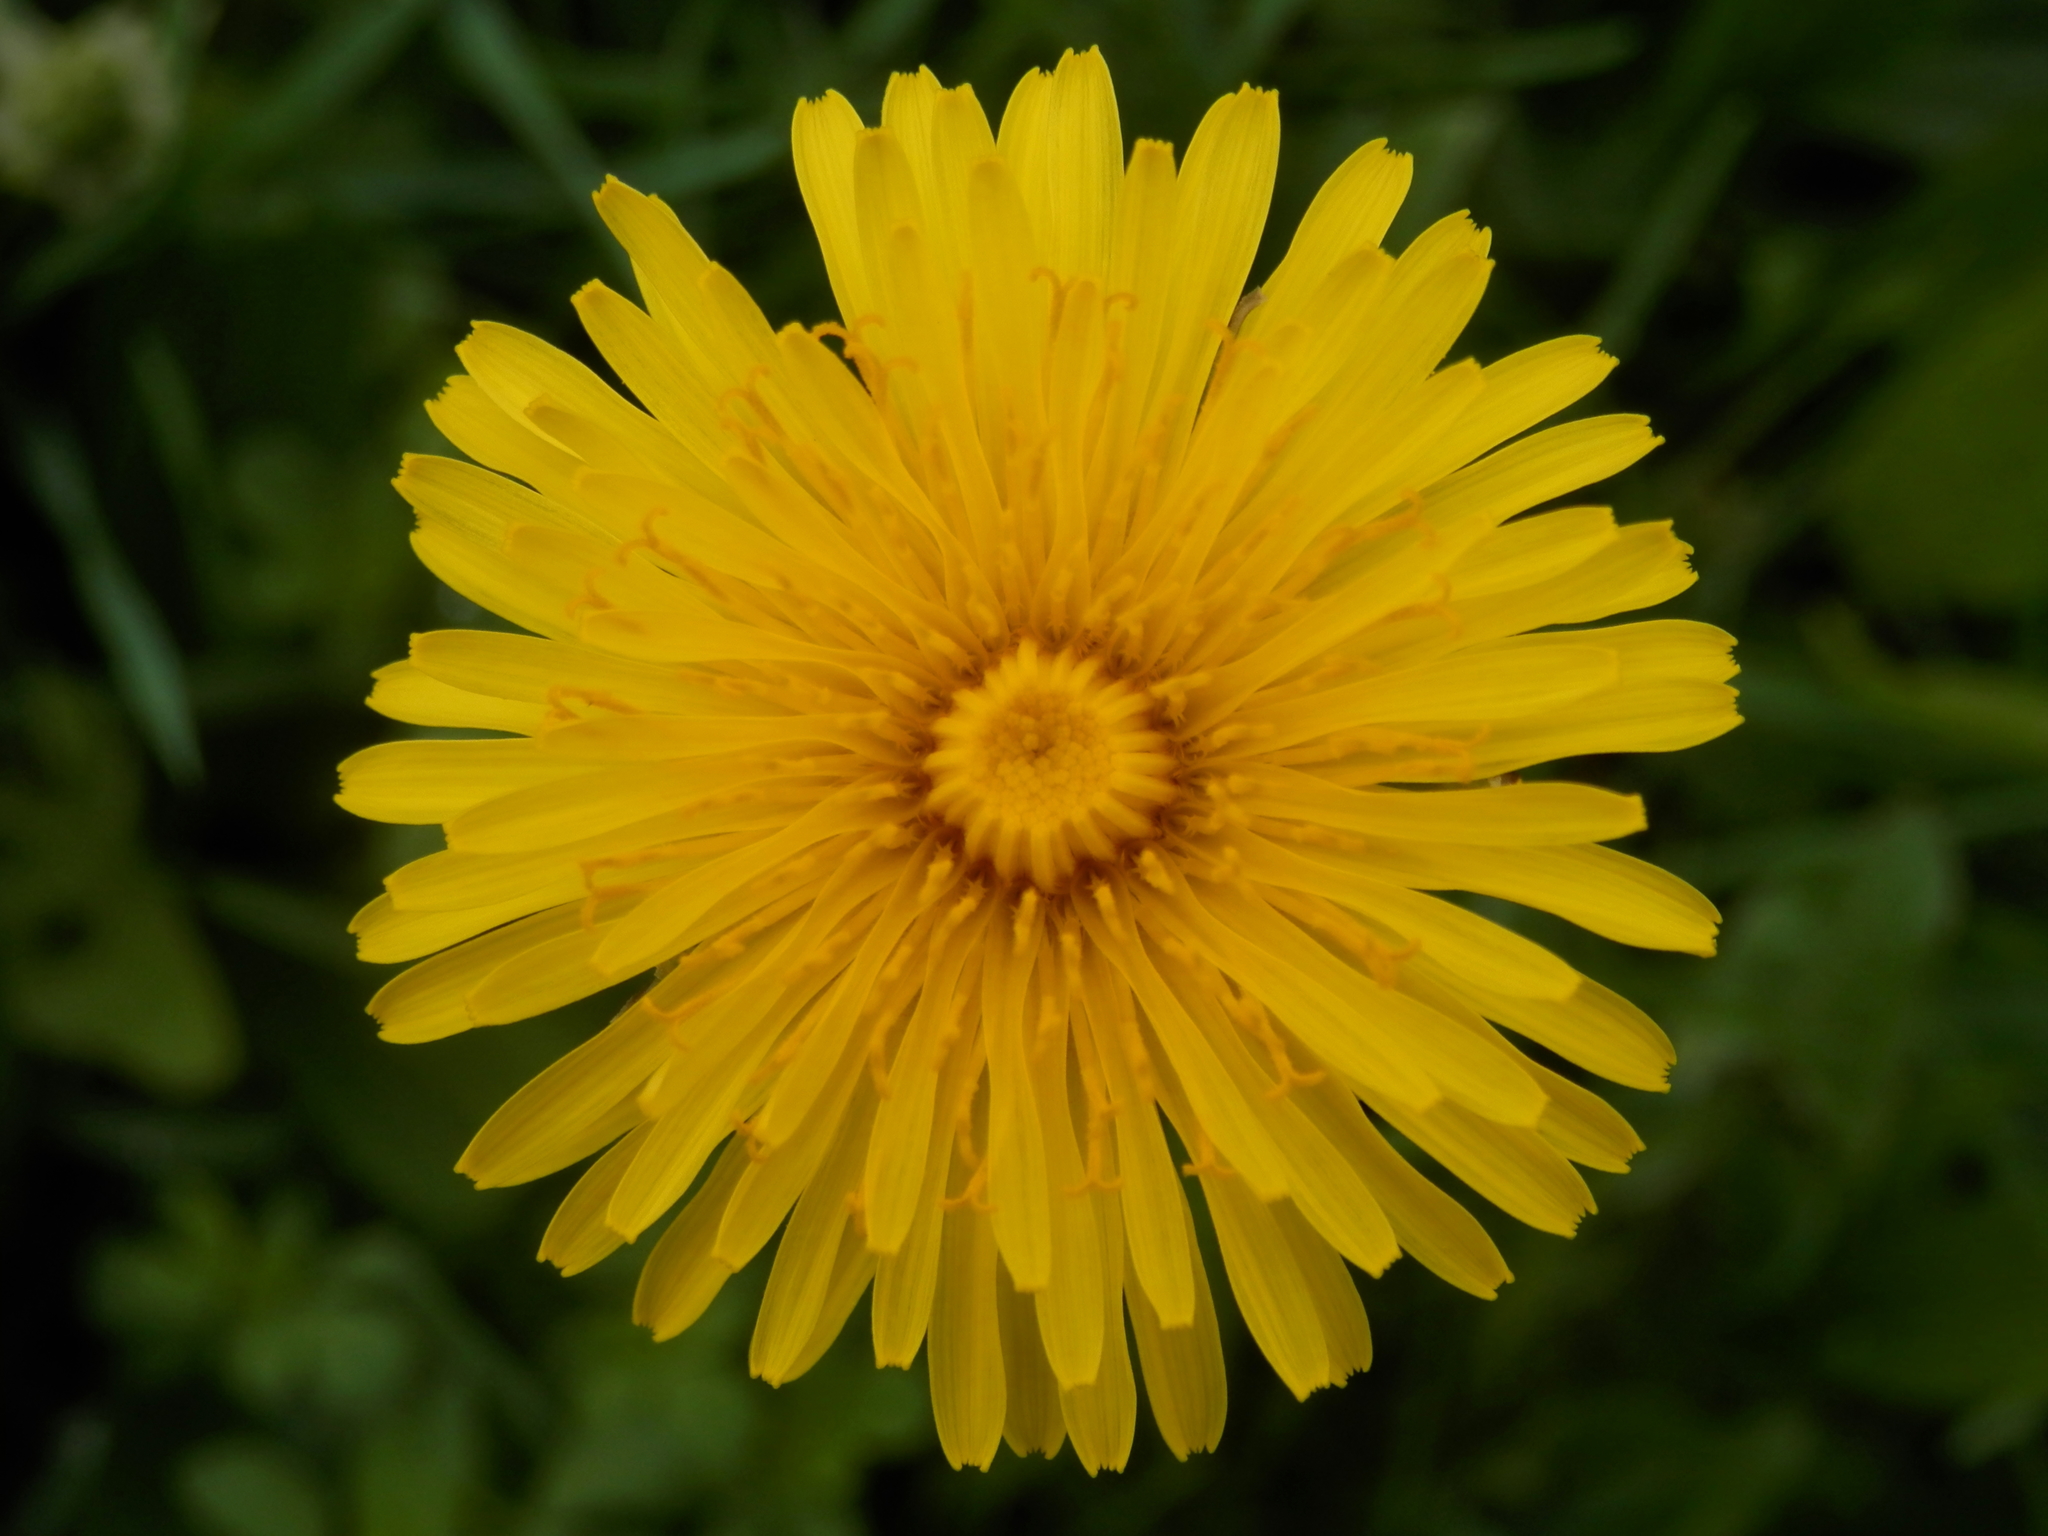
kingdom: Plantae
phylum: Tracheophyta
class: Magnoliopsida
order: Asterales
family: Asteraceae
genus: Taraxacum
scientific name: Taraxacum officinale
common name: Common dandelion
